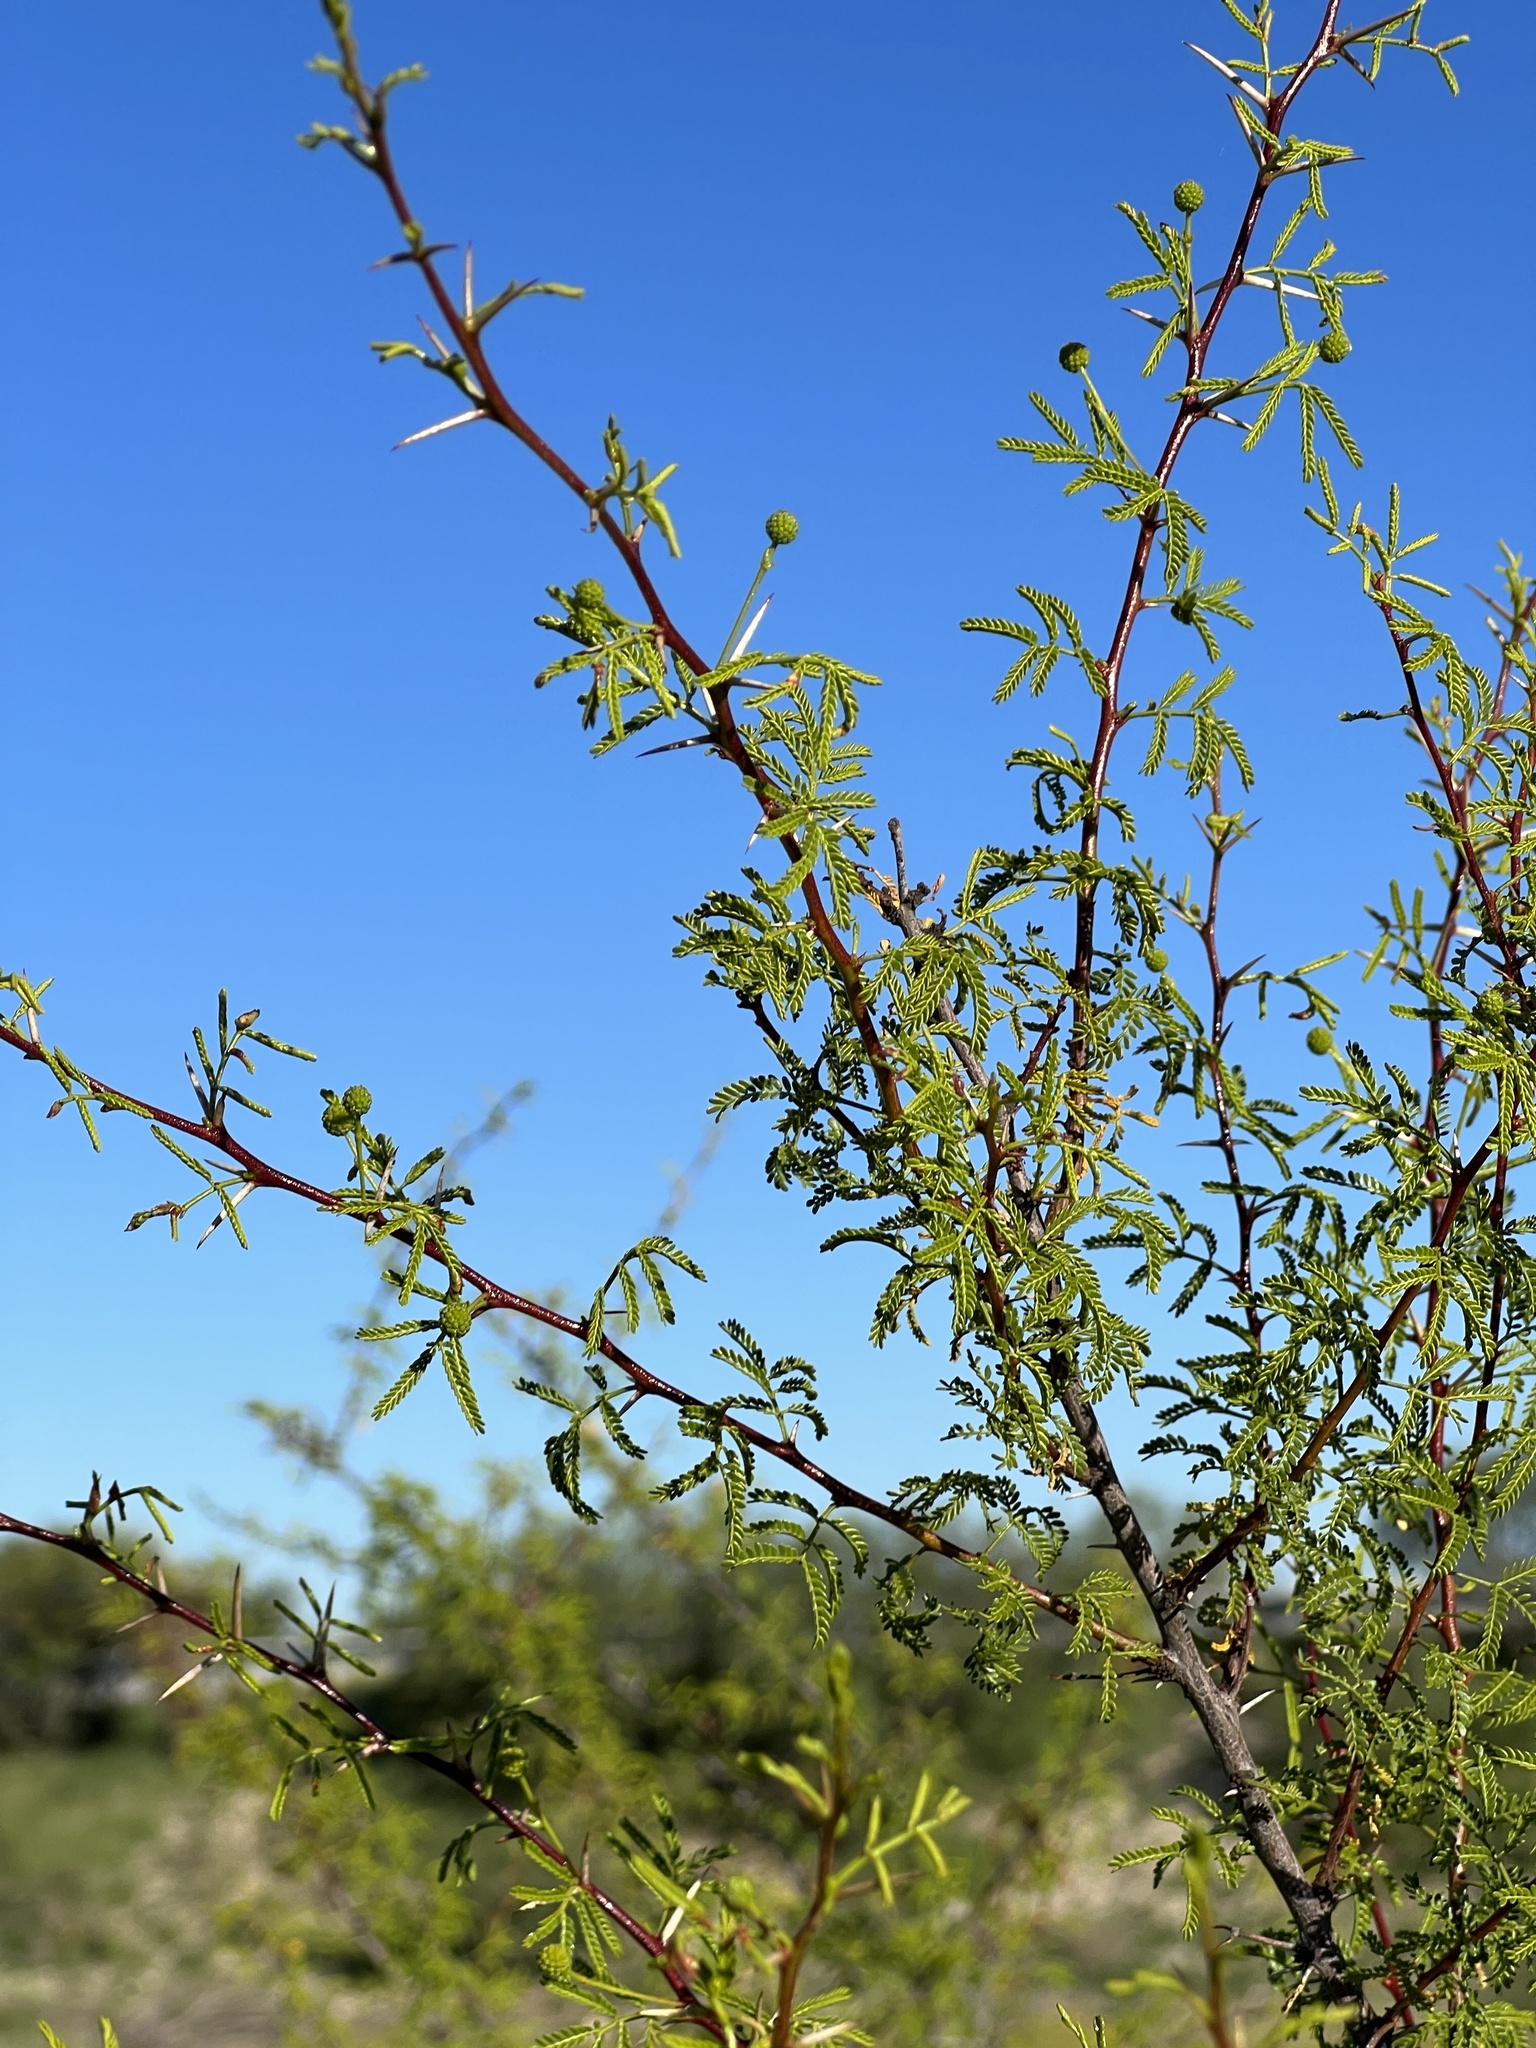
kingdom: Plantae
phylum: Tracheophyta
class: Magnoliopsida
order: Fabales
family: Fabaceae
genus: Vachellia
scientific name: Vachellia vernicosa
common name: Viscid acacia
